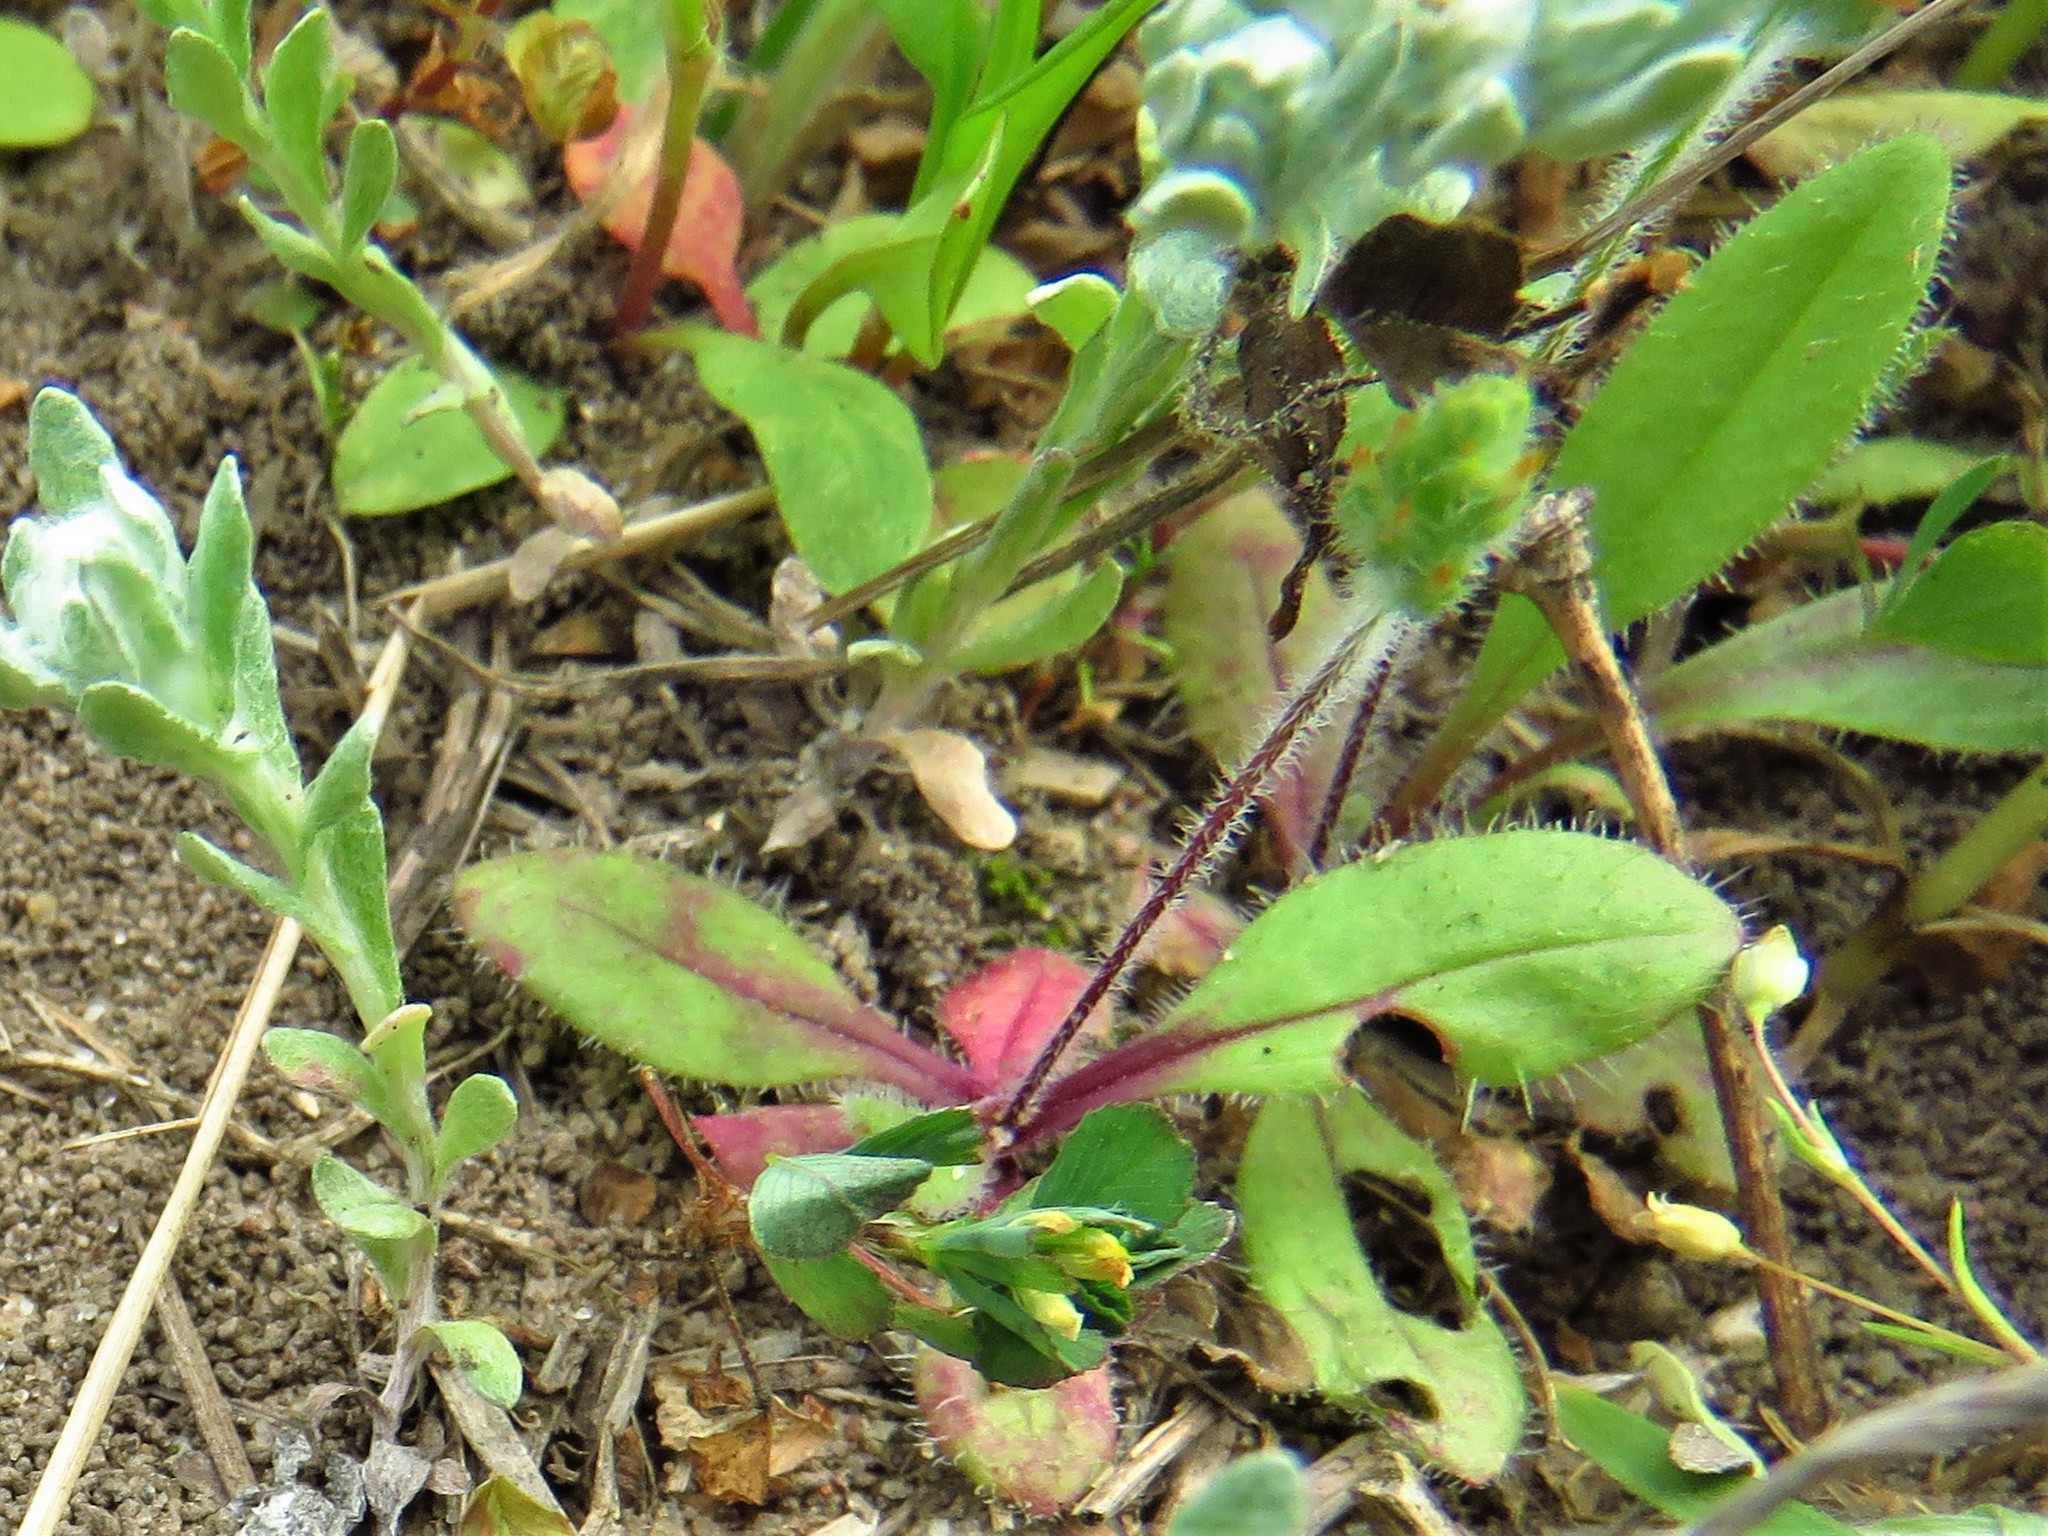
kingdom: Plantae
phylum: Tracheophyta
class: Magnoliopsida
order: Lamiales
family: Plantaginaceae
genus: Plantago
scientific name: Plantago virginica
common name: Hoary plantain
